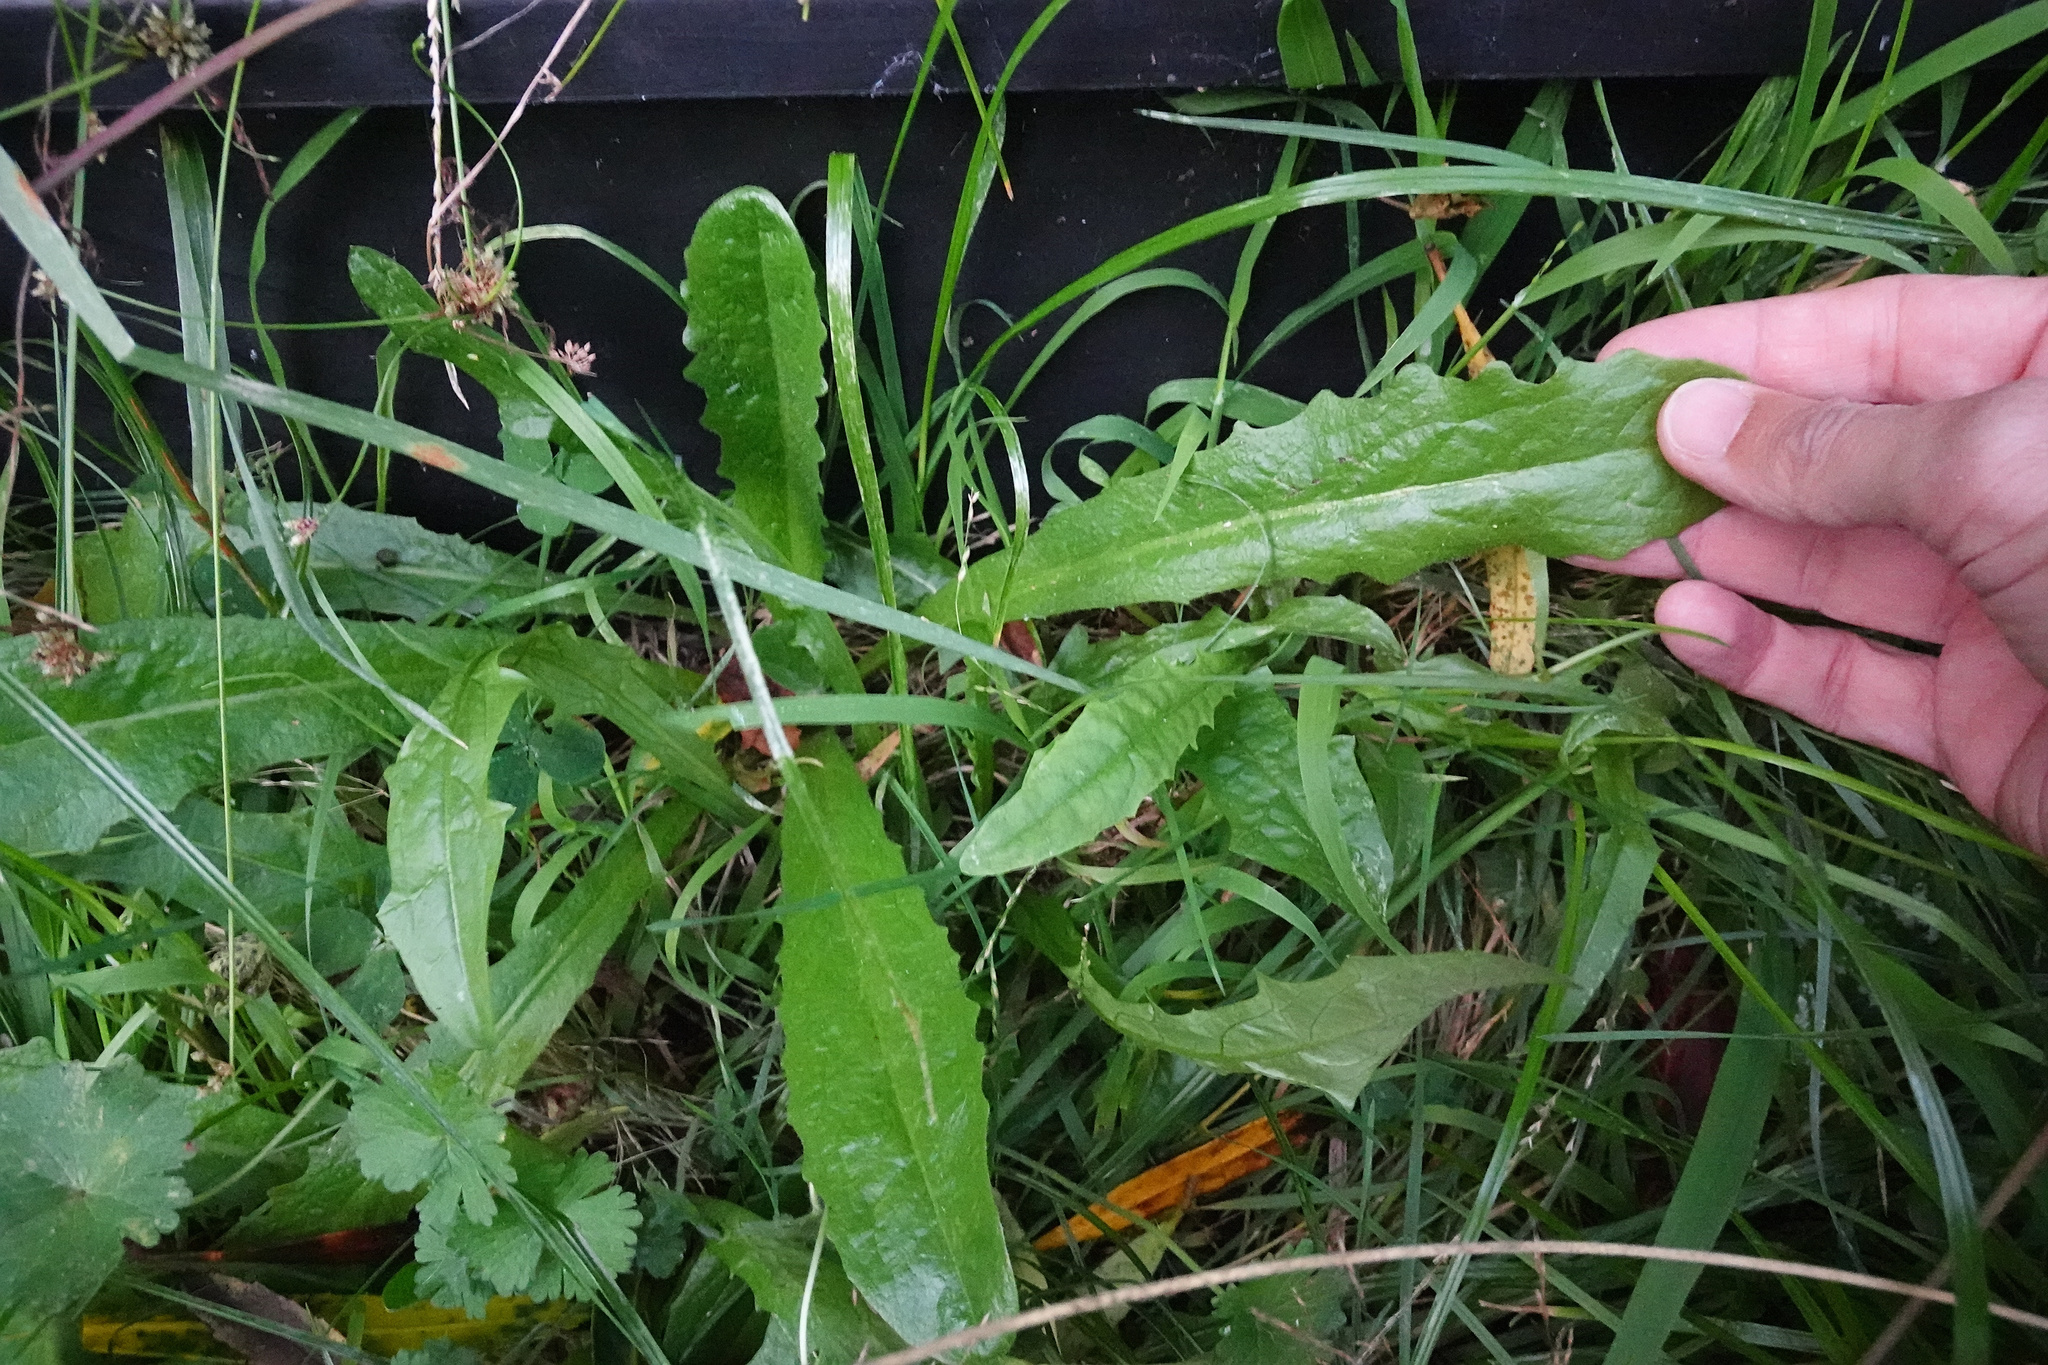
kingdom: Plantae
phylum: Tracheophyta
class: Magnoliopsida
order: Asterales
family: Asteraceae
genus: Hypochaeris
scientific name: Hypochaeris radicata
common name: Flatweed
